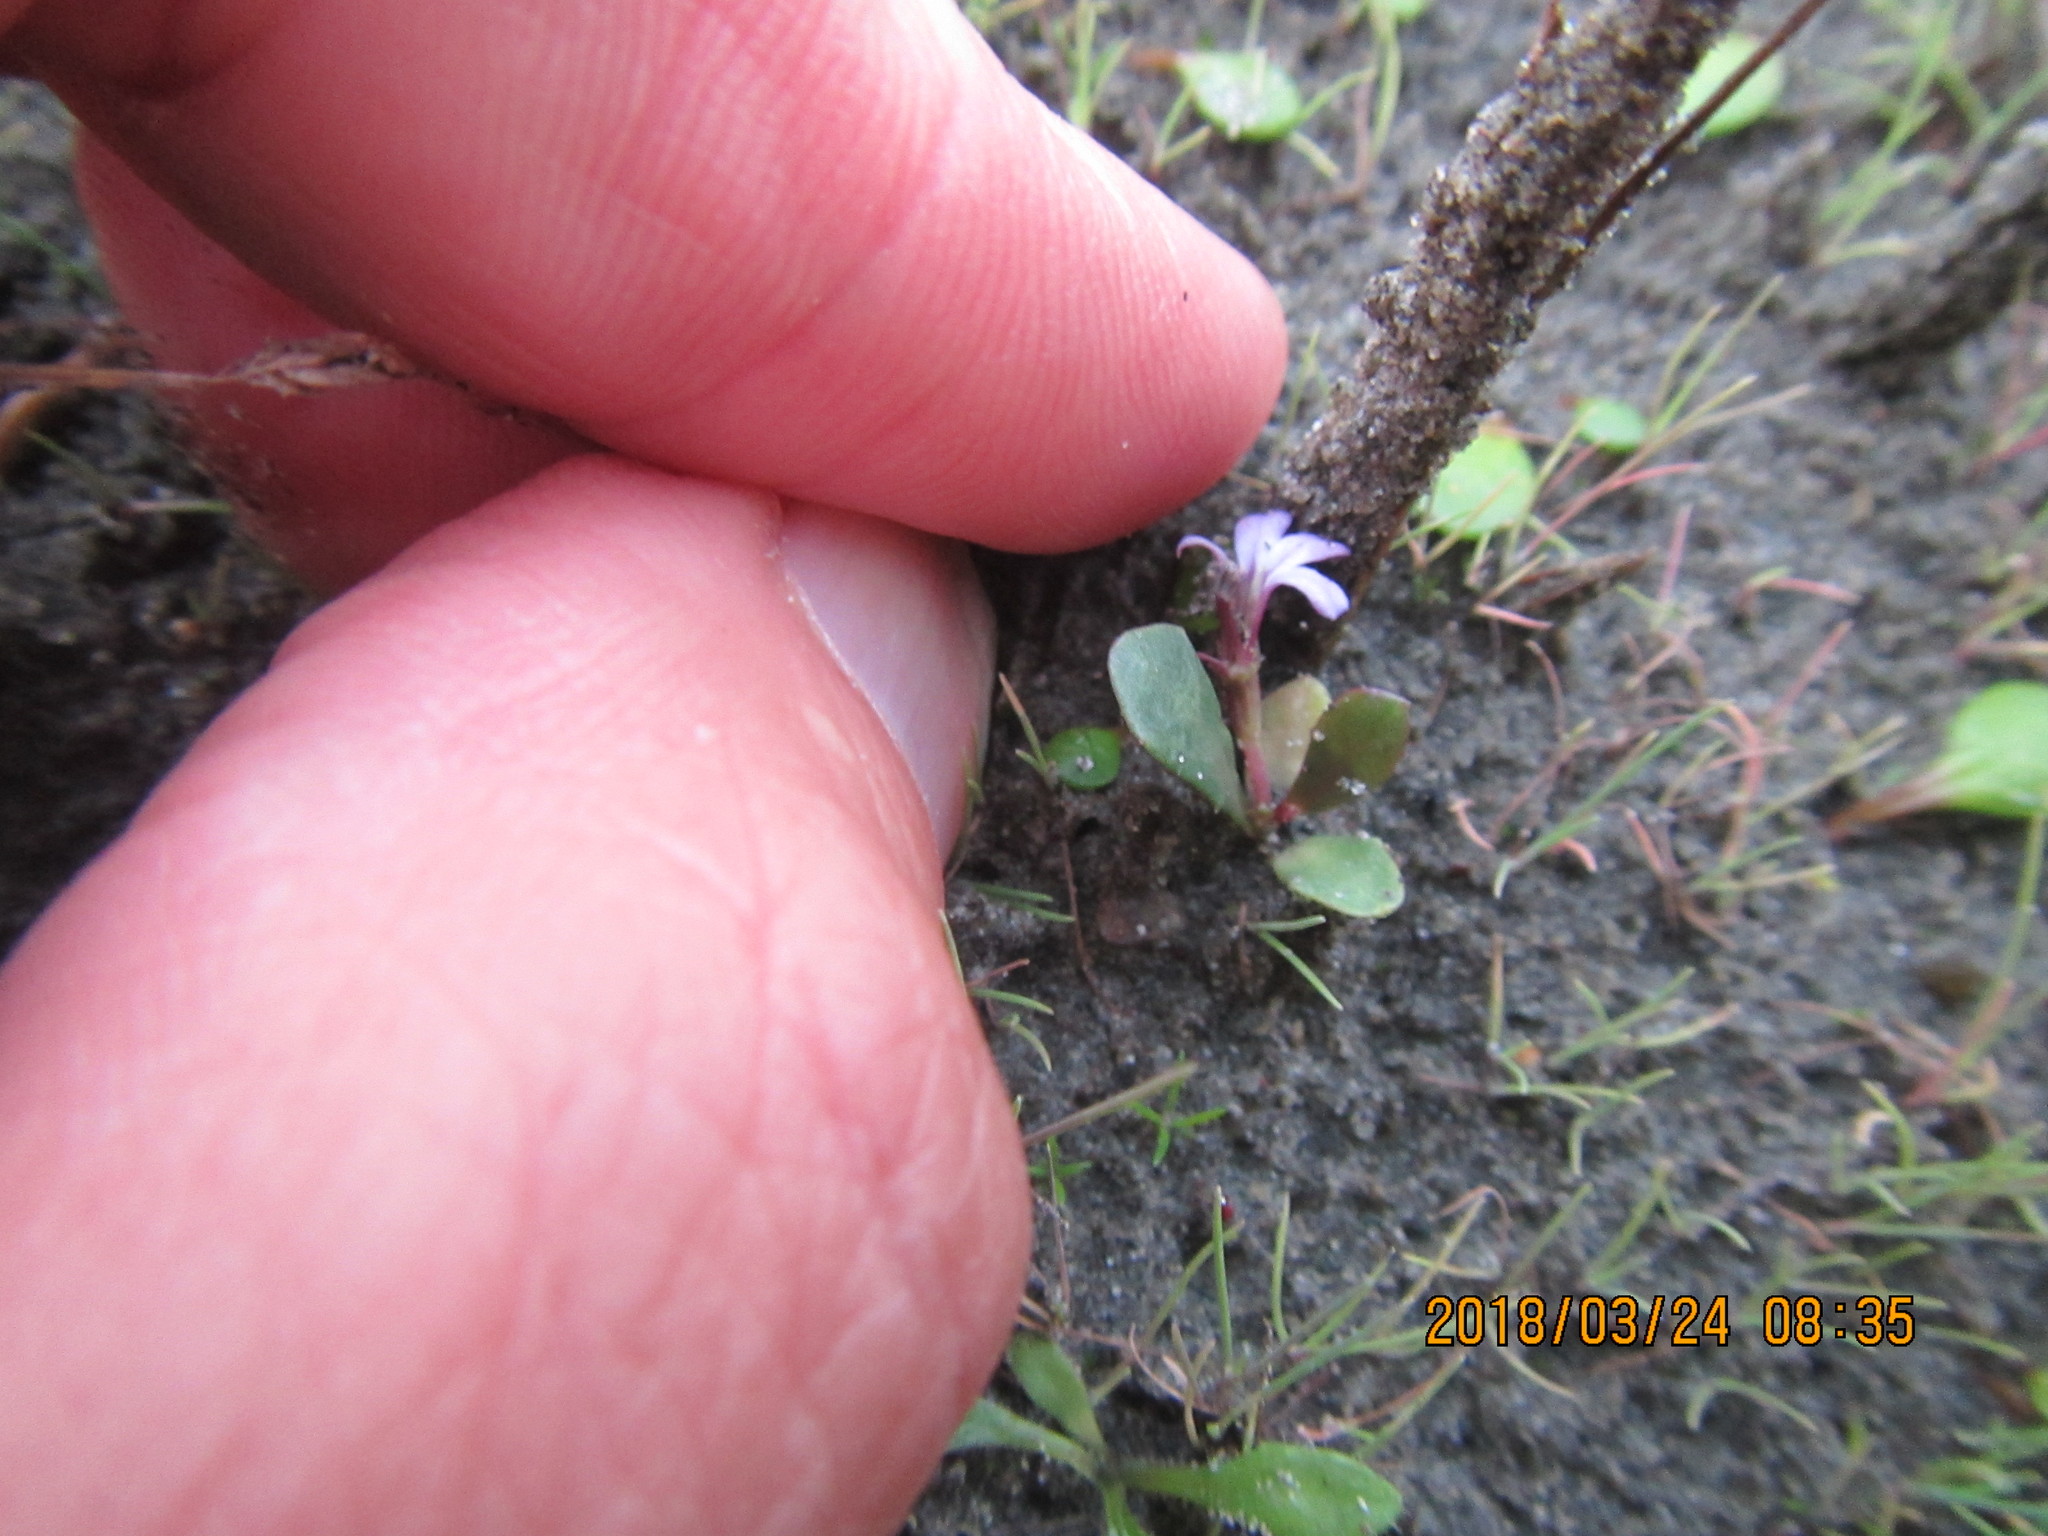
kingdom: Plantae
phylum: Tracheophyta
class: Magnoliopsida
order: Asterales
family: Campanulaceae
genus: Lobelia
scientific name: Lobelia anceps
